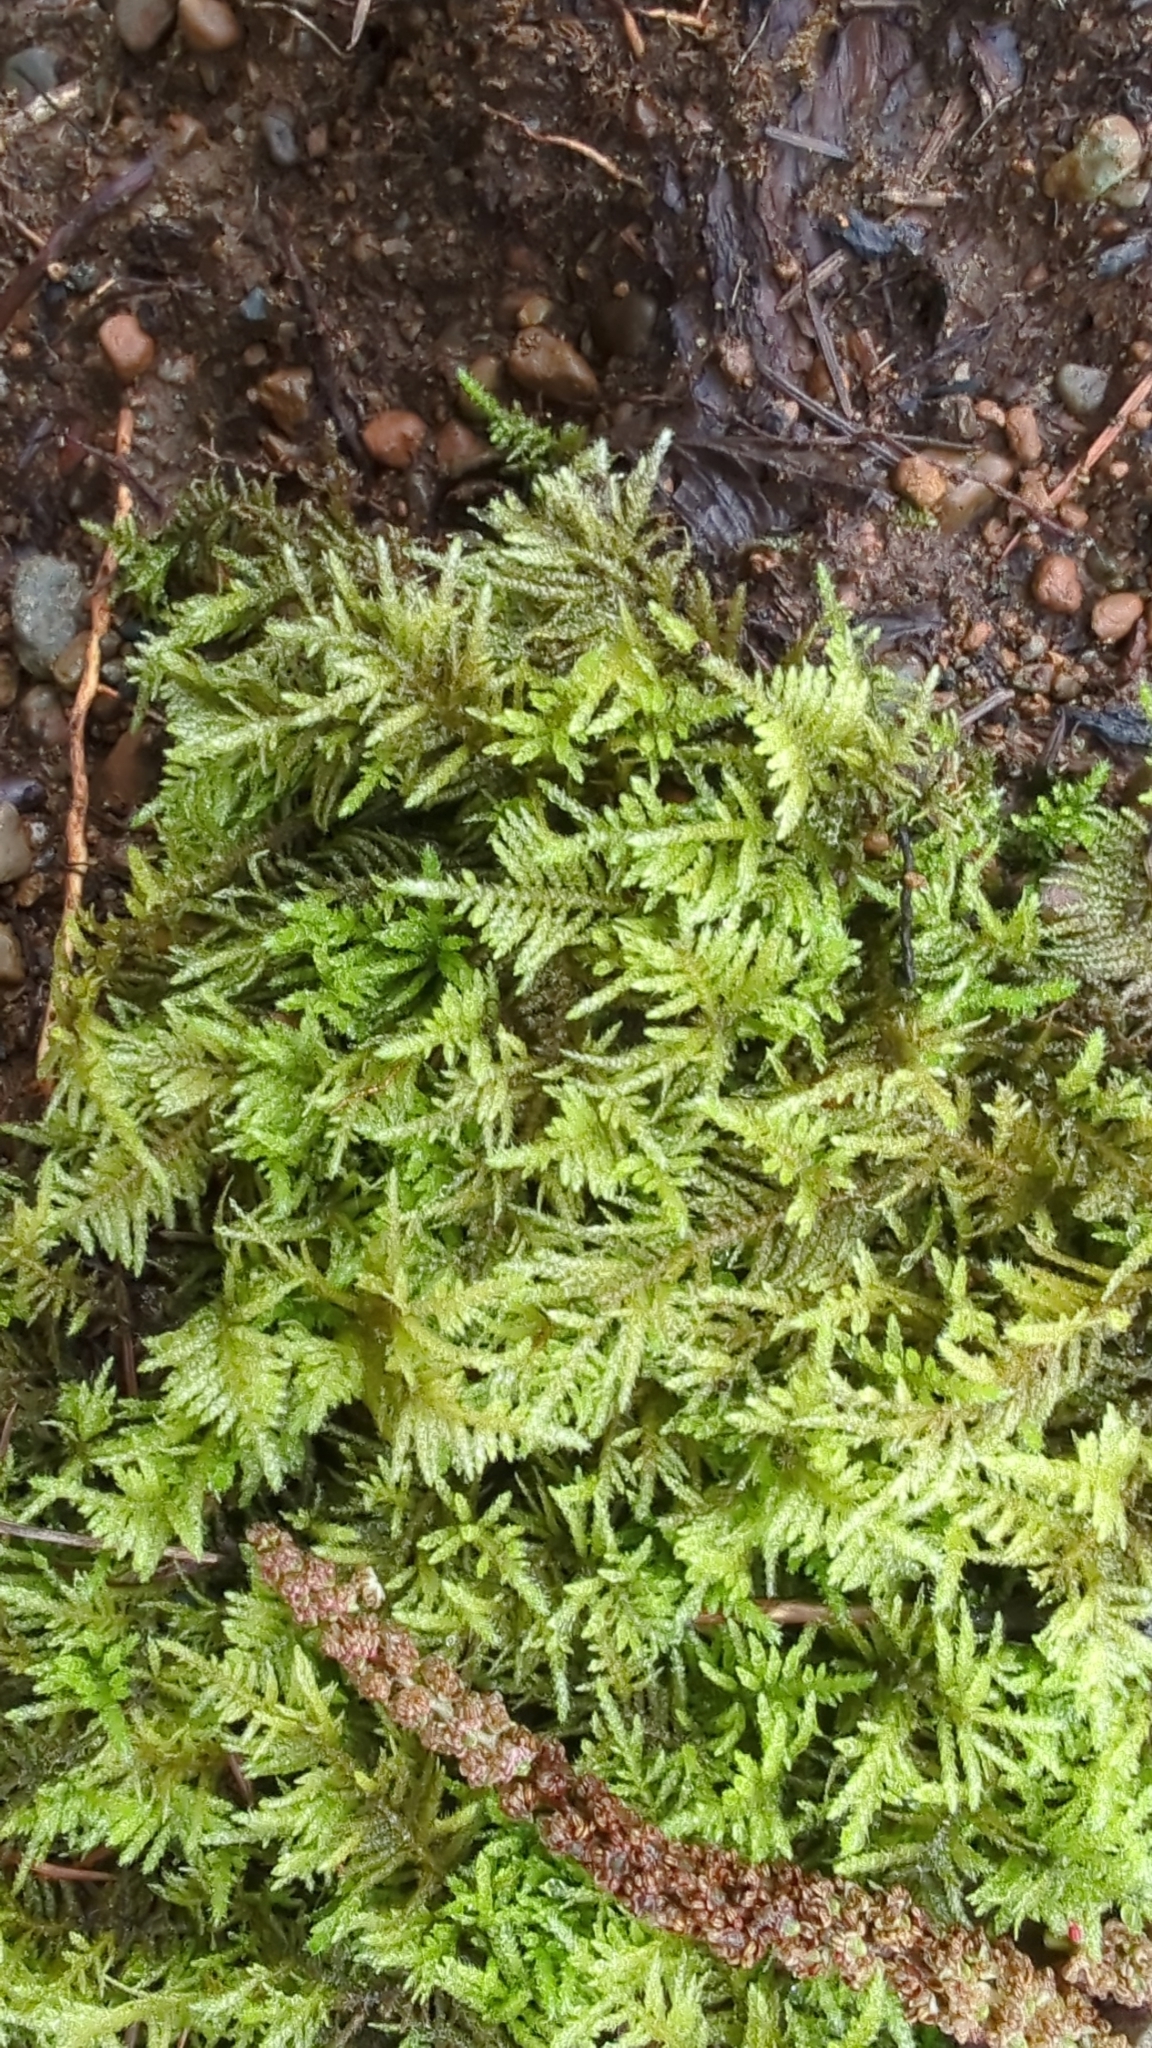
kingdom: Plantae
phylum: Bryophyta
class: Bryopsida
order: Hypnales
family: Brachytheciaceae
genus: Kindbergia
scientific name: Kindbergia oregana
